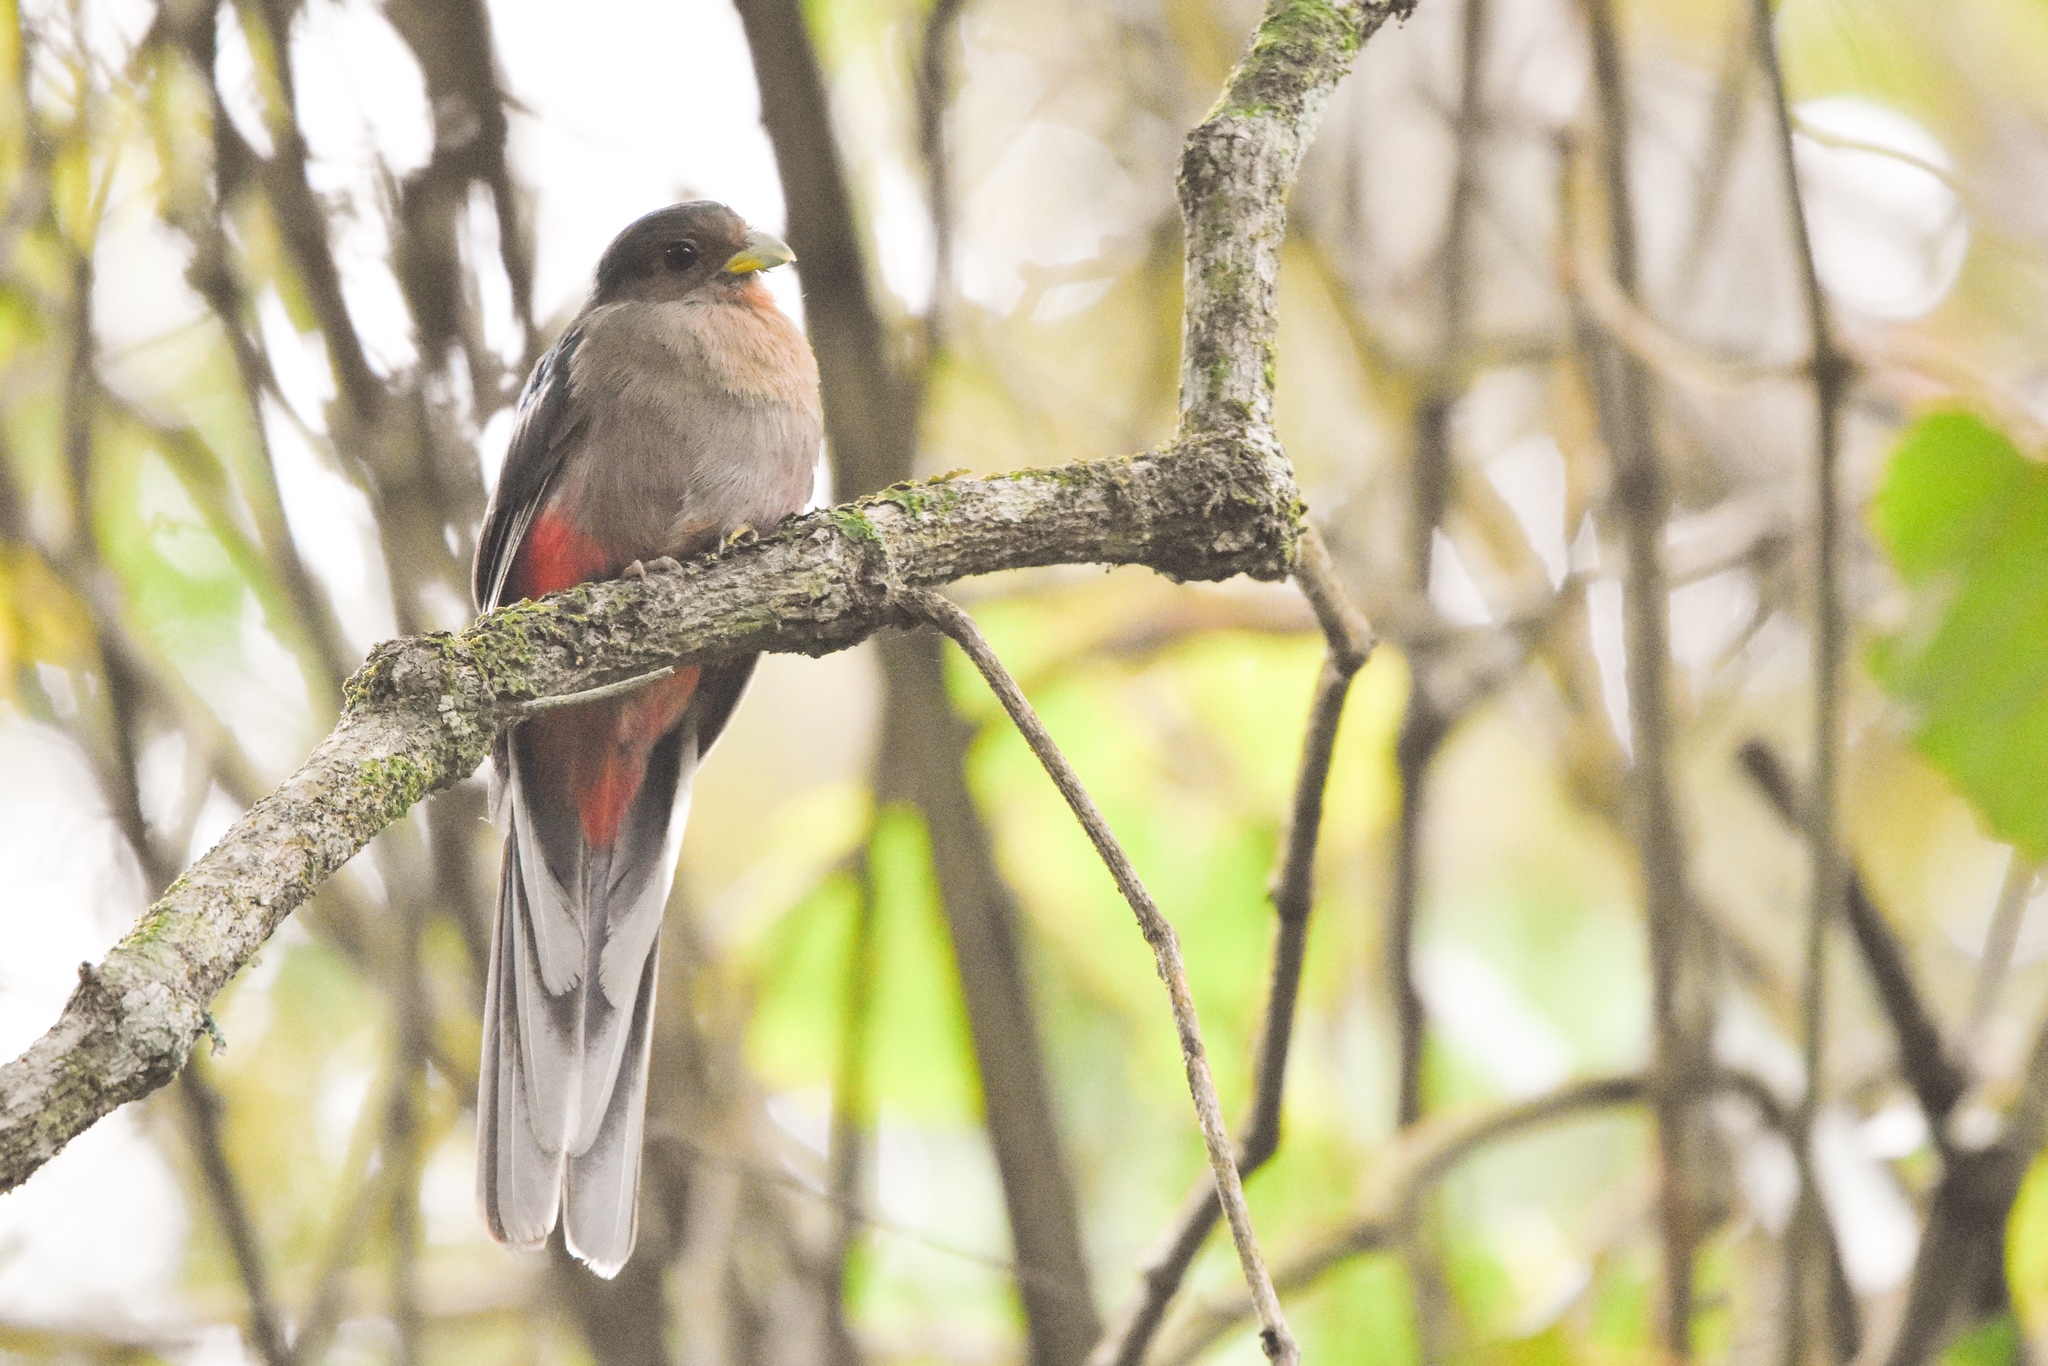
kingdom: Animalia
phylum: Chordata
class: Aves
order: Trogoniformes
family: Trogonidae
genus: Apaloderma
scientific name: Apaloderma narina
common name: Narina trogon
